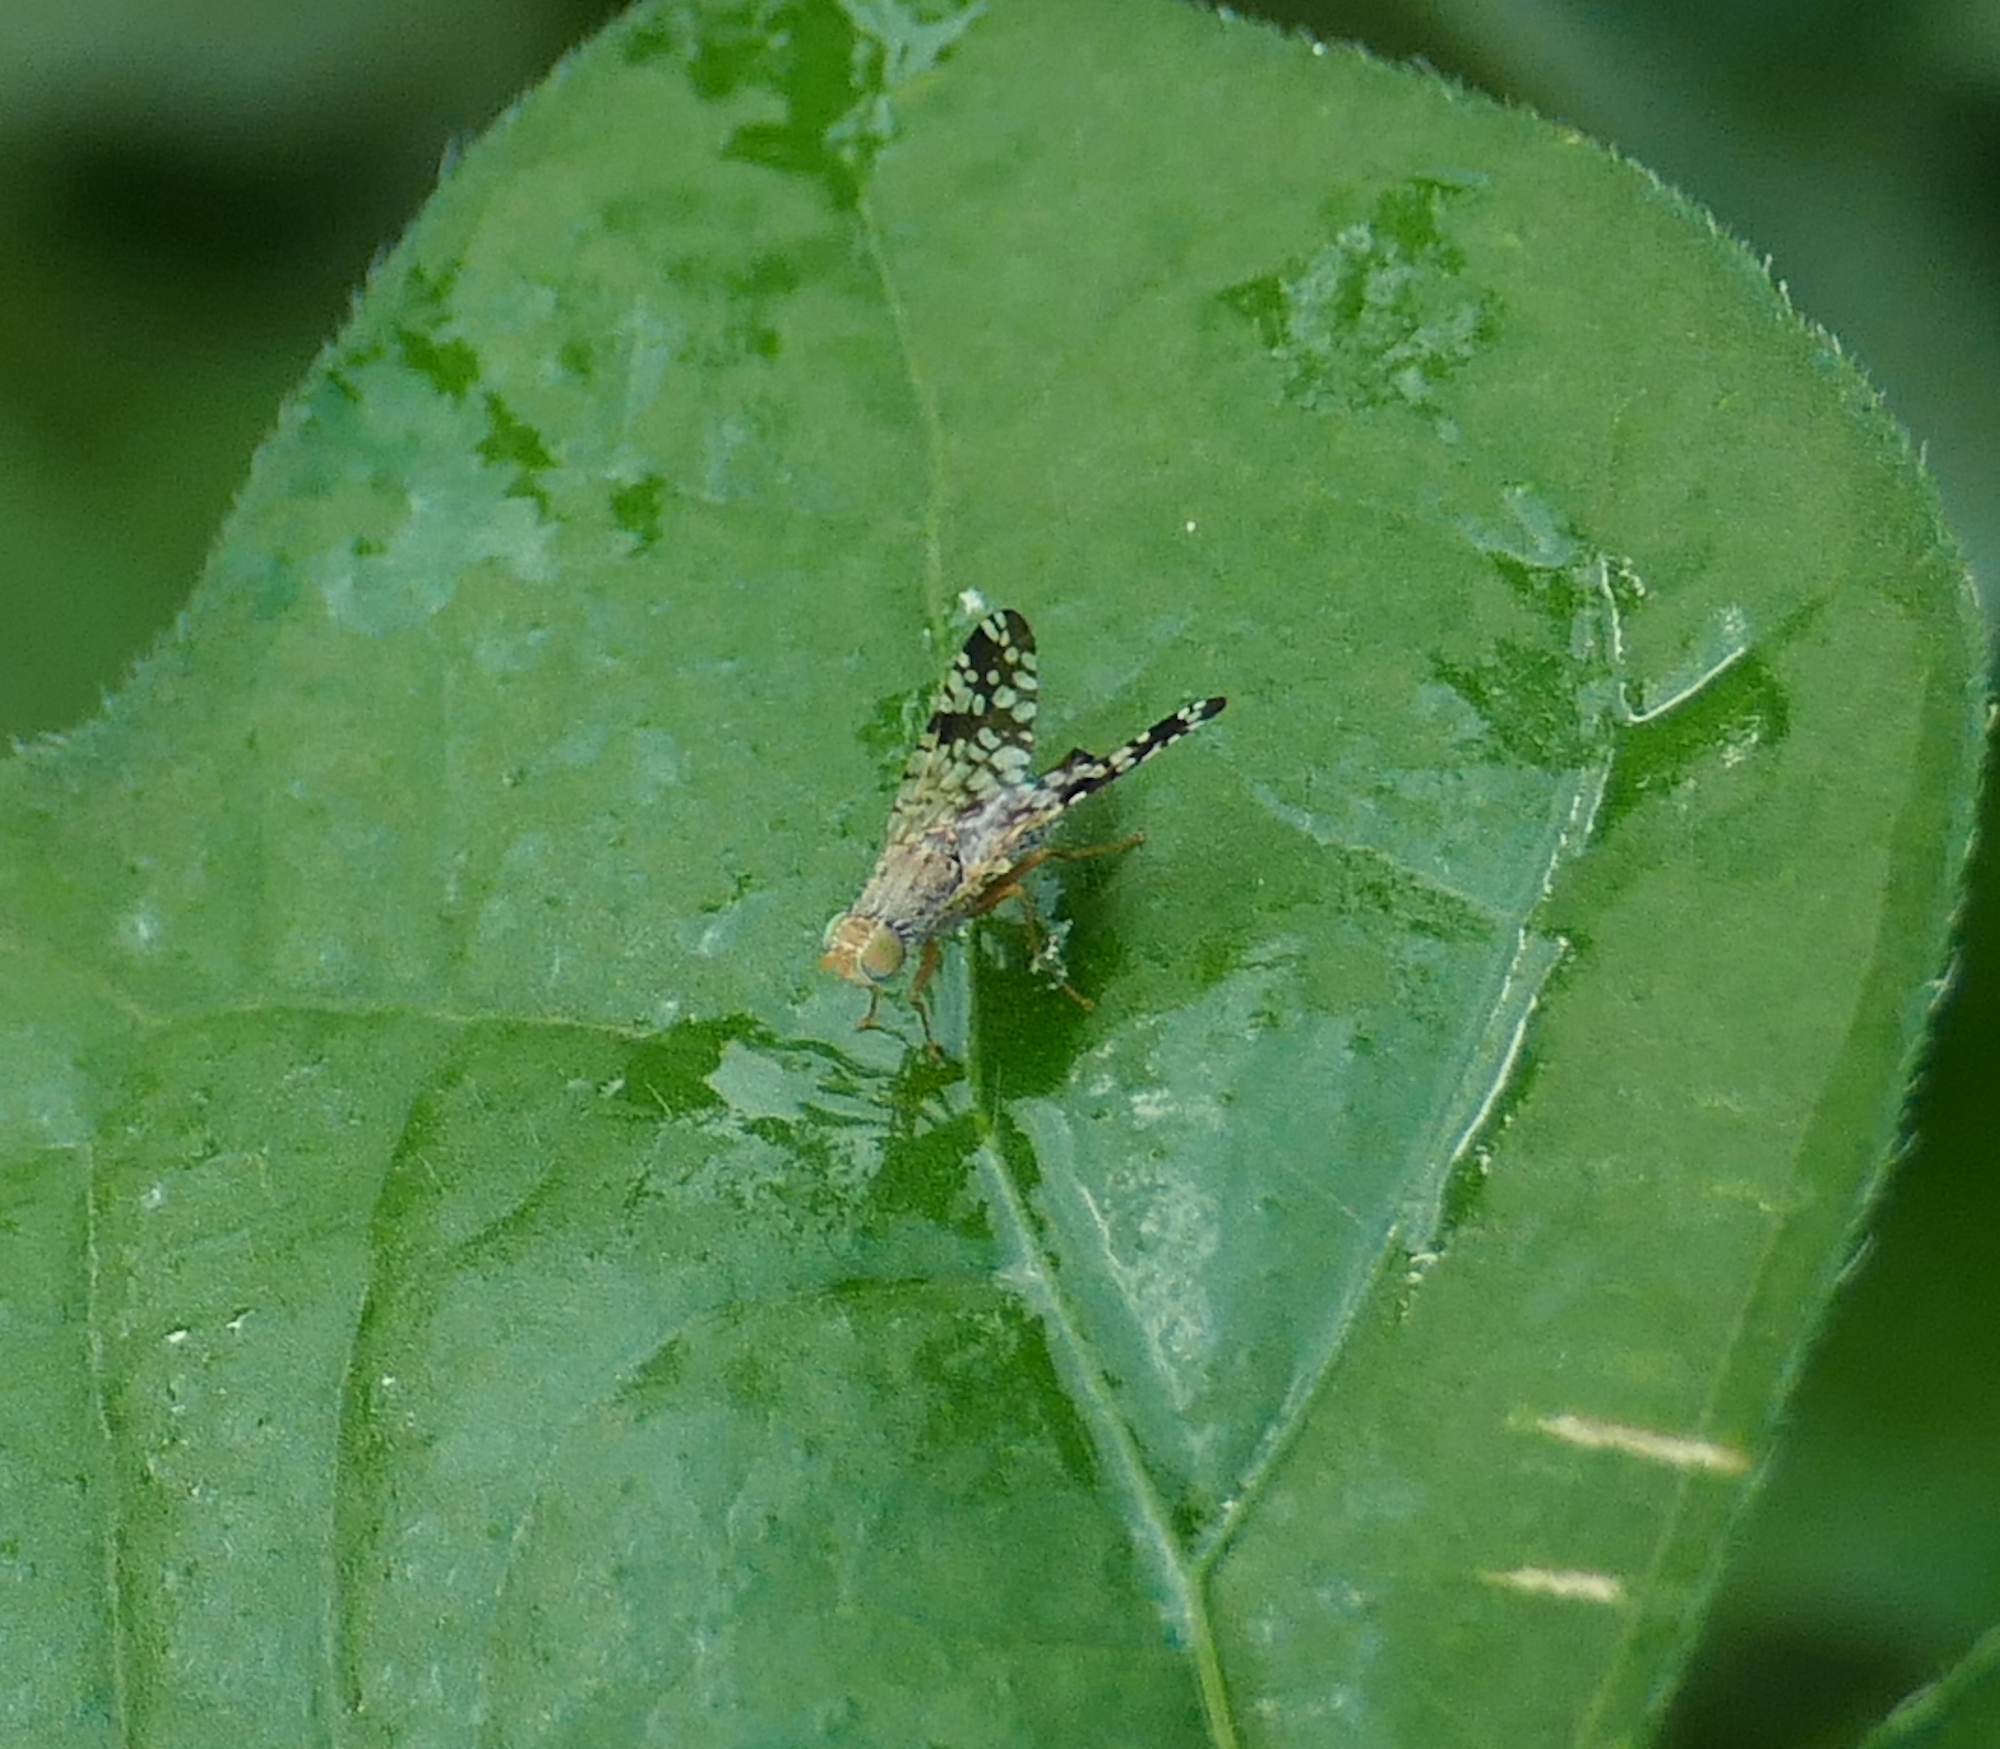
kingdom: Animalia
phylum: Arthropoda
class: Insecta
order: Diptera
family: Tephritidae
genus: Neotephritis
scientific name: Neotephritis finalis
